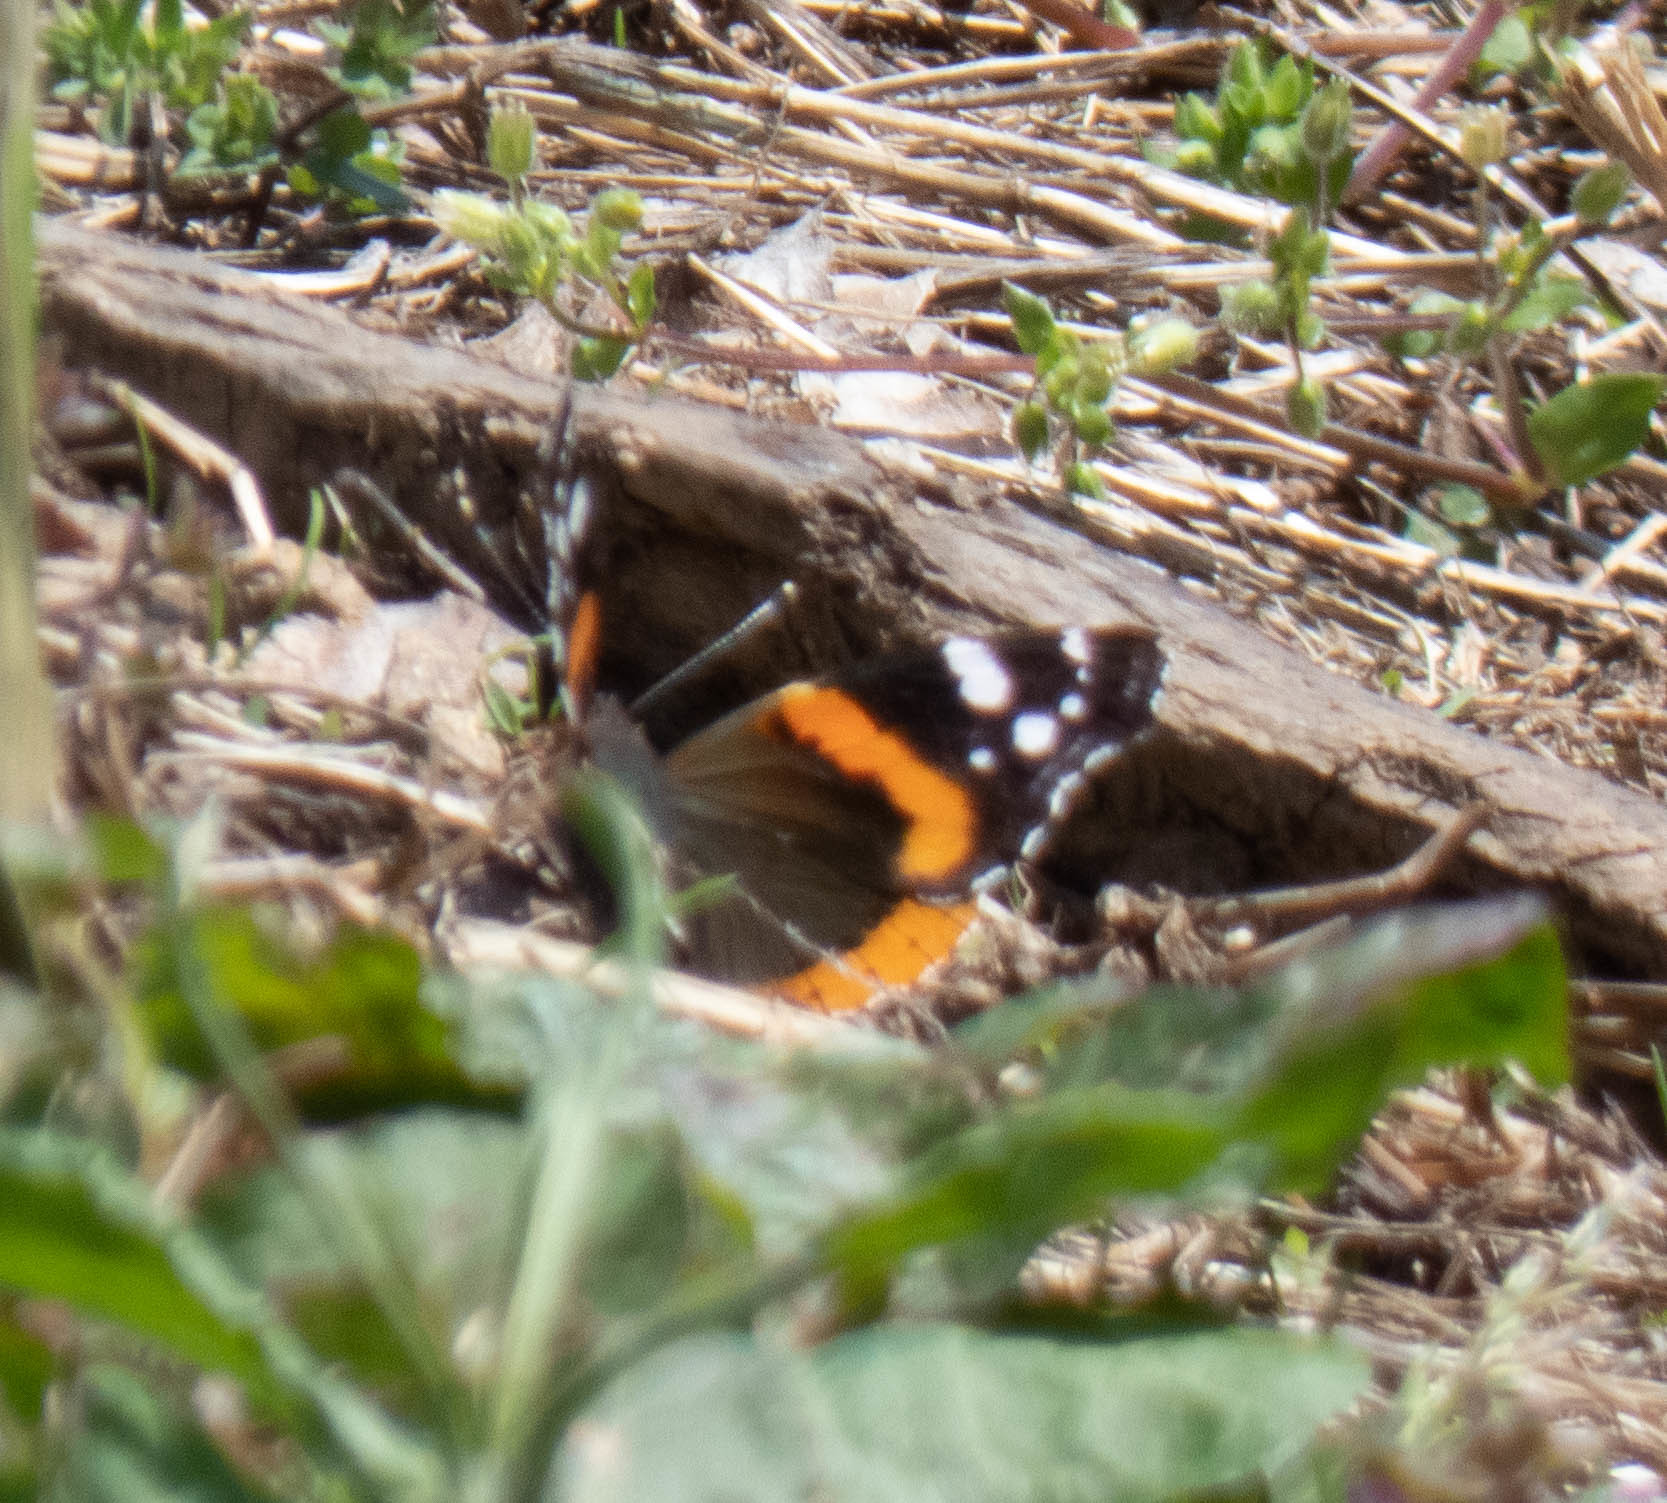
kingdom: Animalia
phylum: Arthropoda
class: Insecta
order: Lepidoptera
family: Nymphalidae
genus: Vanessa
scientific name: Vanessa atalanta
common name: Red admiral
